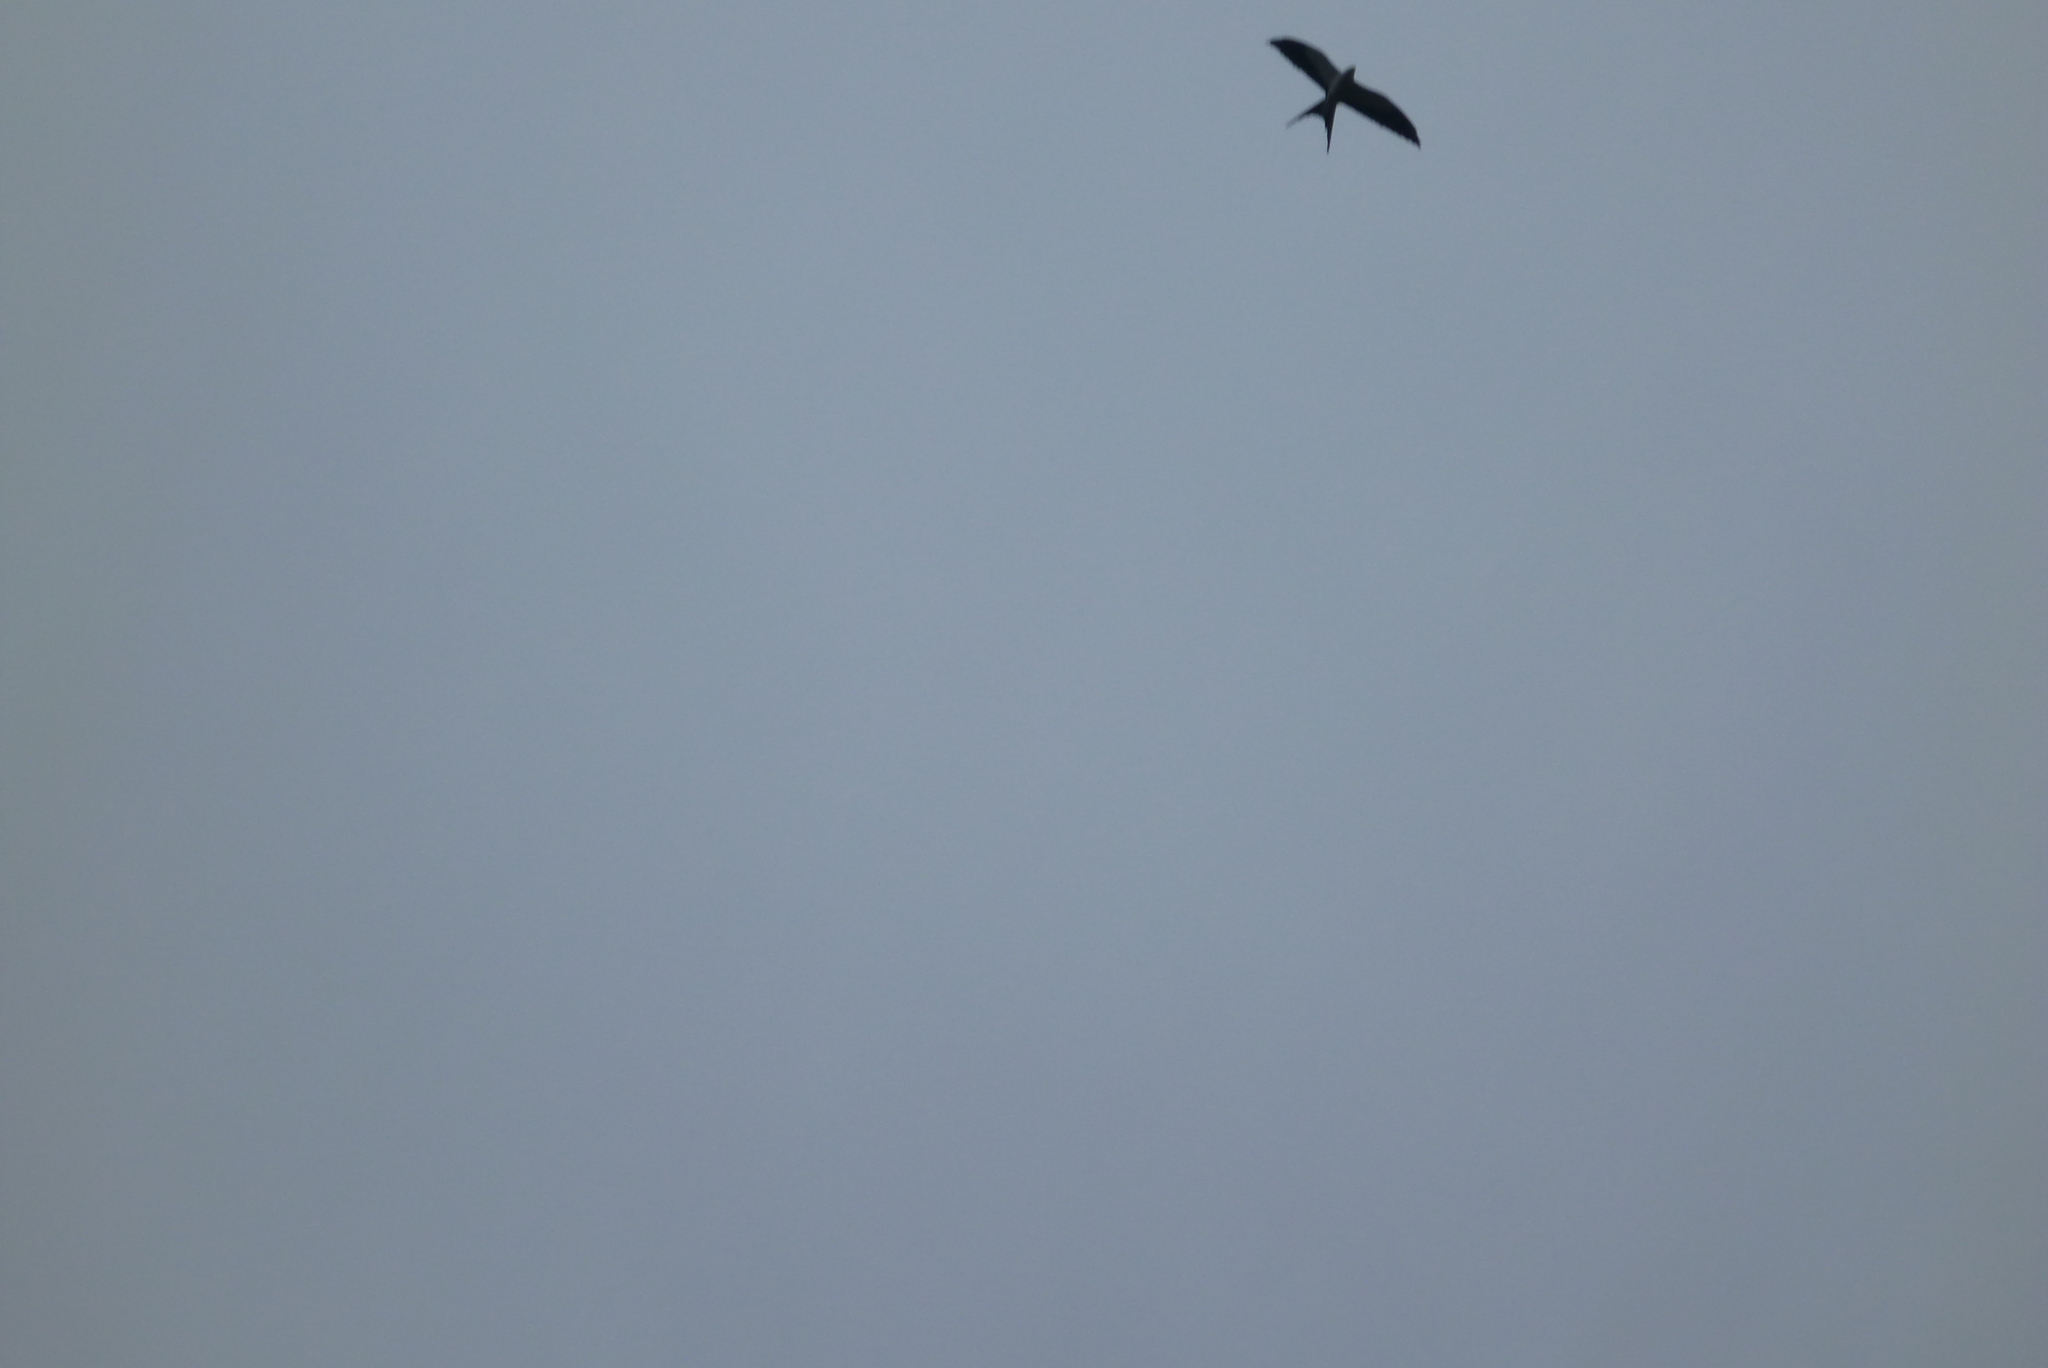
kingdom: Animalia
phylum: Chordata
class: Aves
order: Accipitriformes
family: Accipitridae
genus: Elanoides
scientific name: Elanoides forficatus
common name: Swallow-tailed kite
